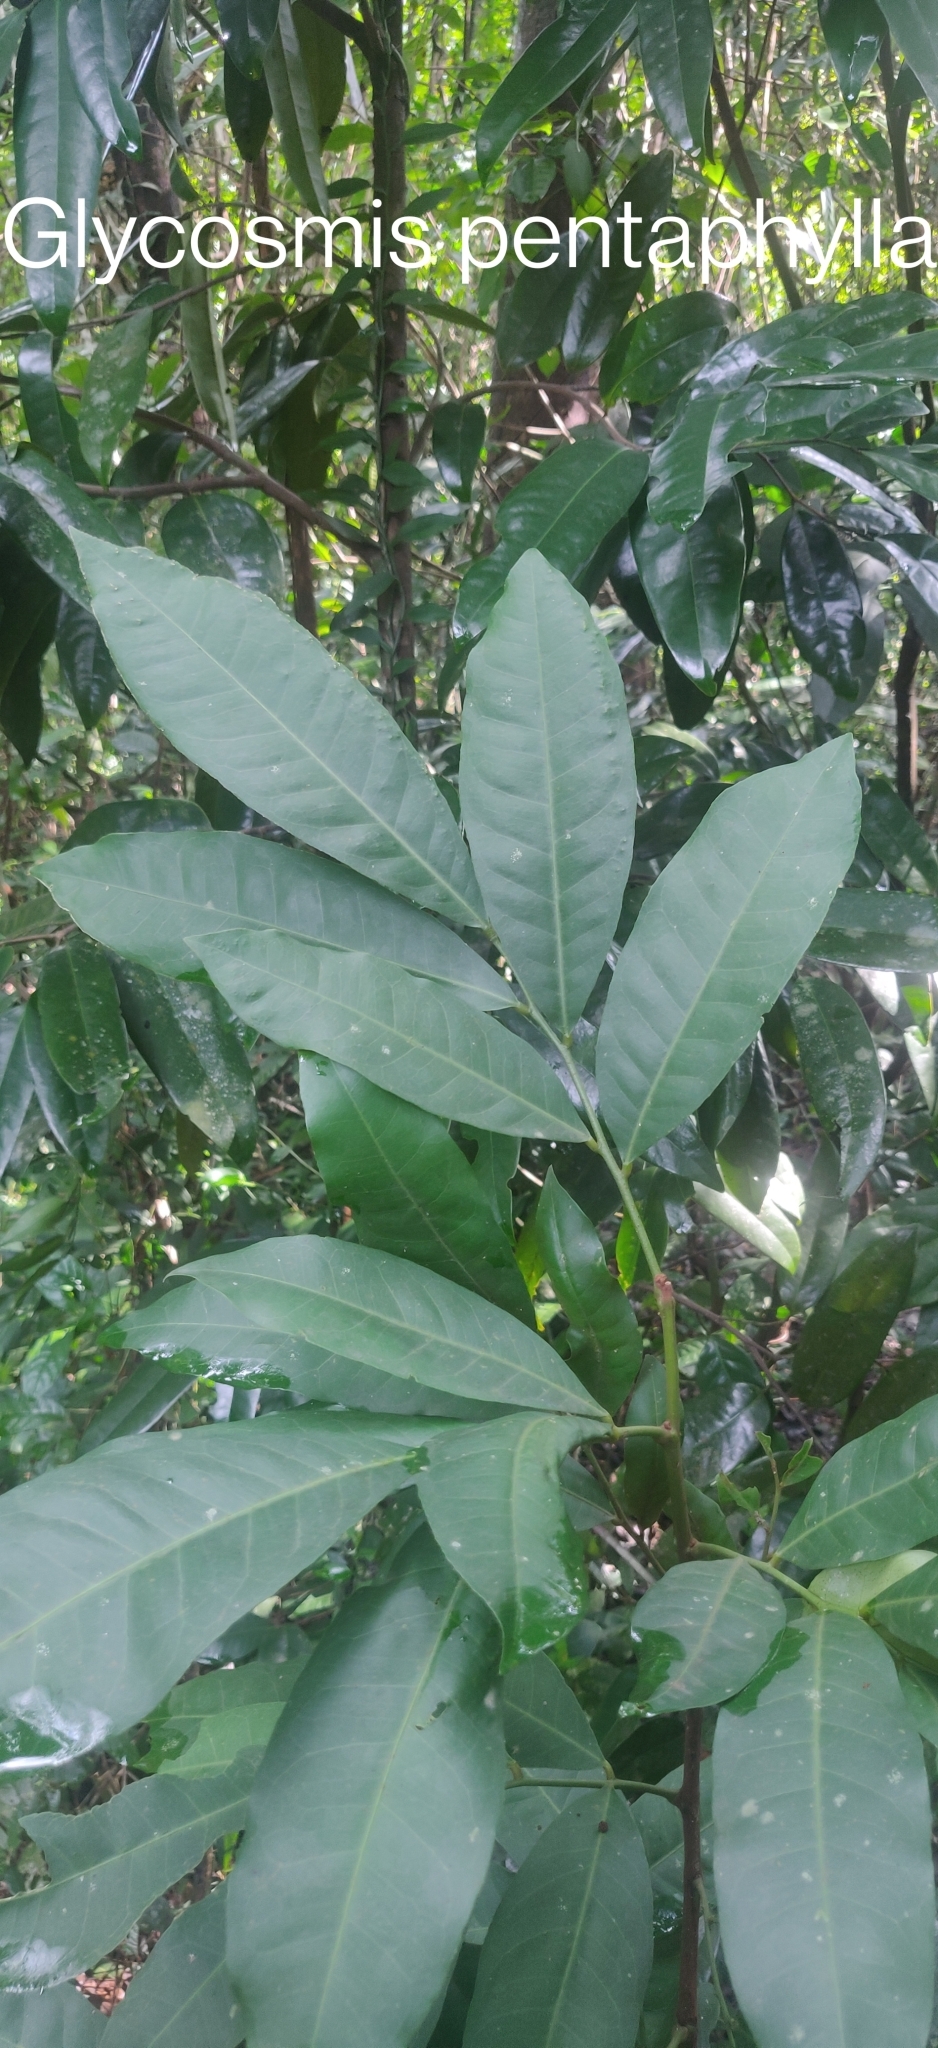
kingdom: Plantae
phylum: Tracheophyta
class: Magnoliopsida
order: Sapindales
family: Rutaceae
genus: Glycosmis
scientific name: Glycosmis pentaphylla
